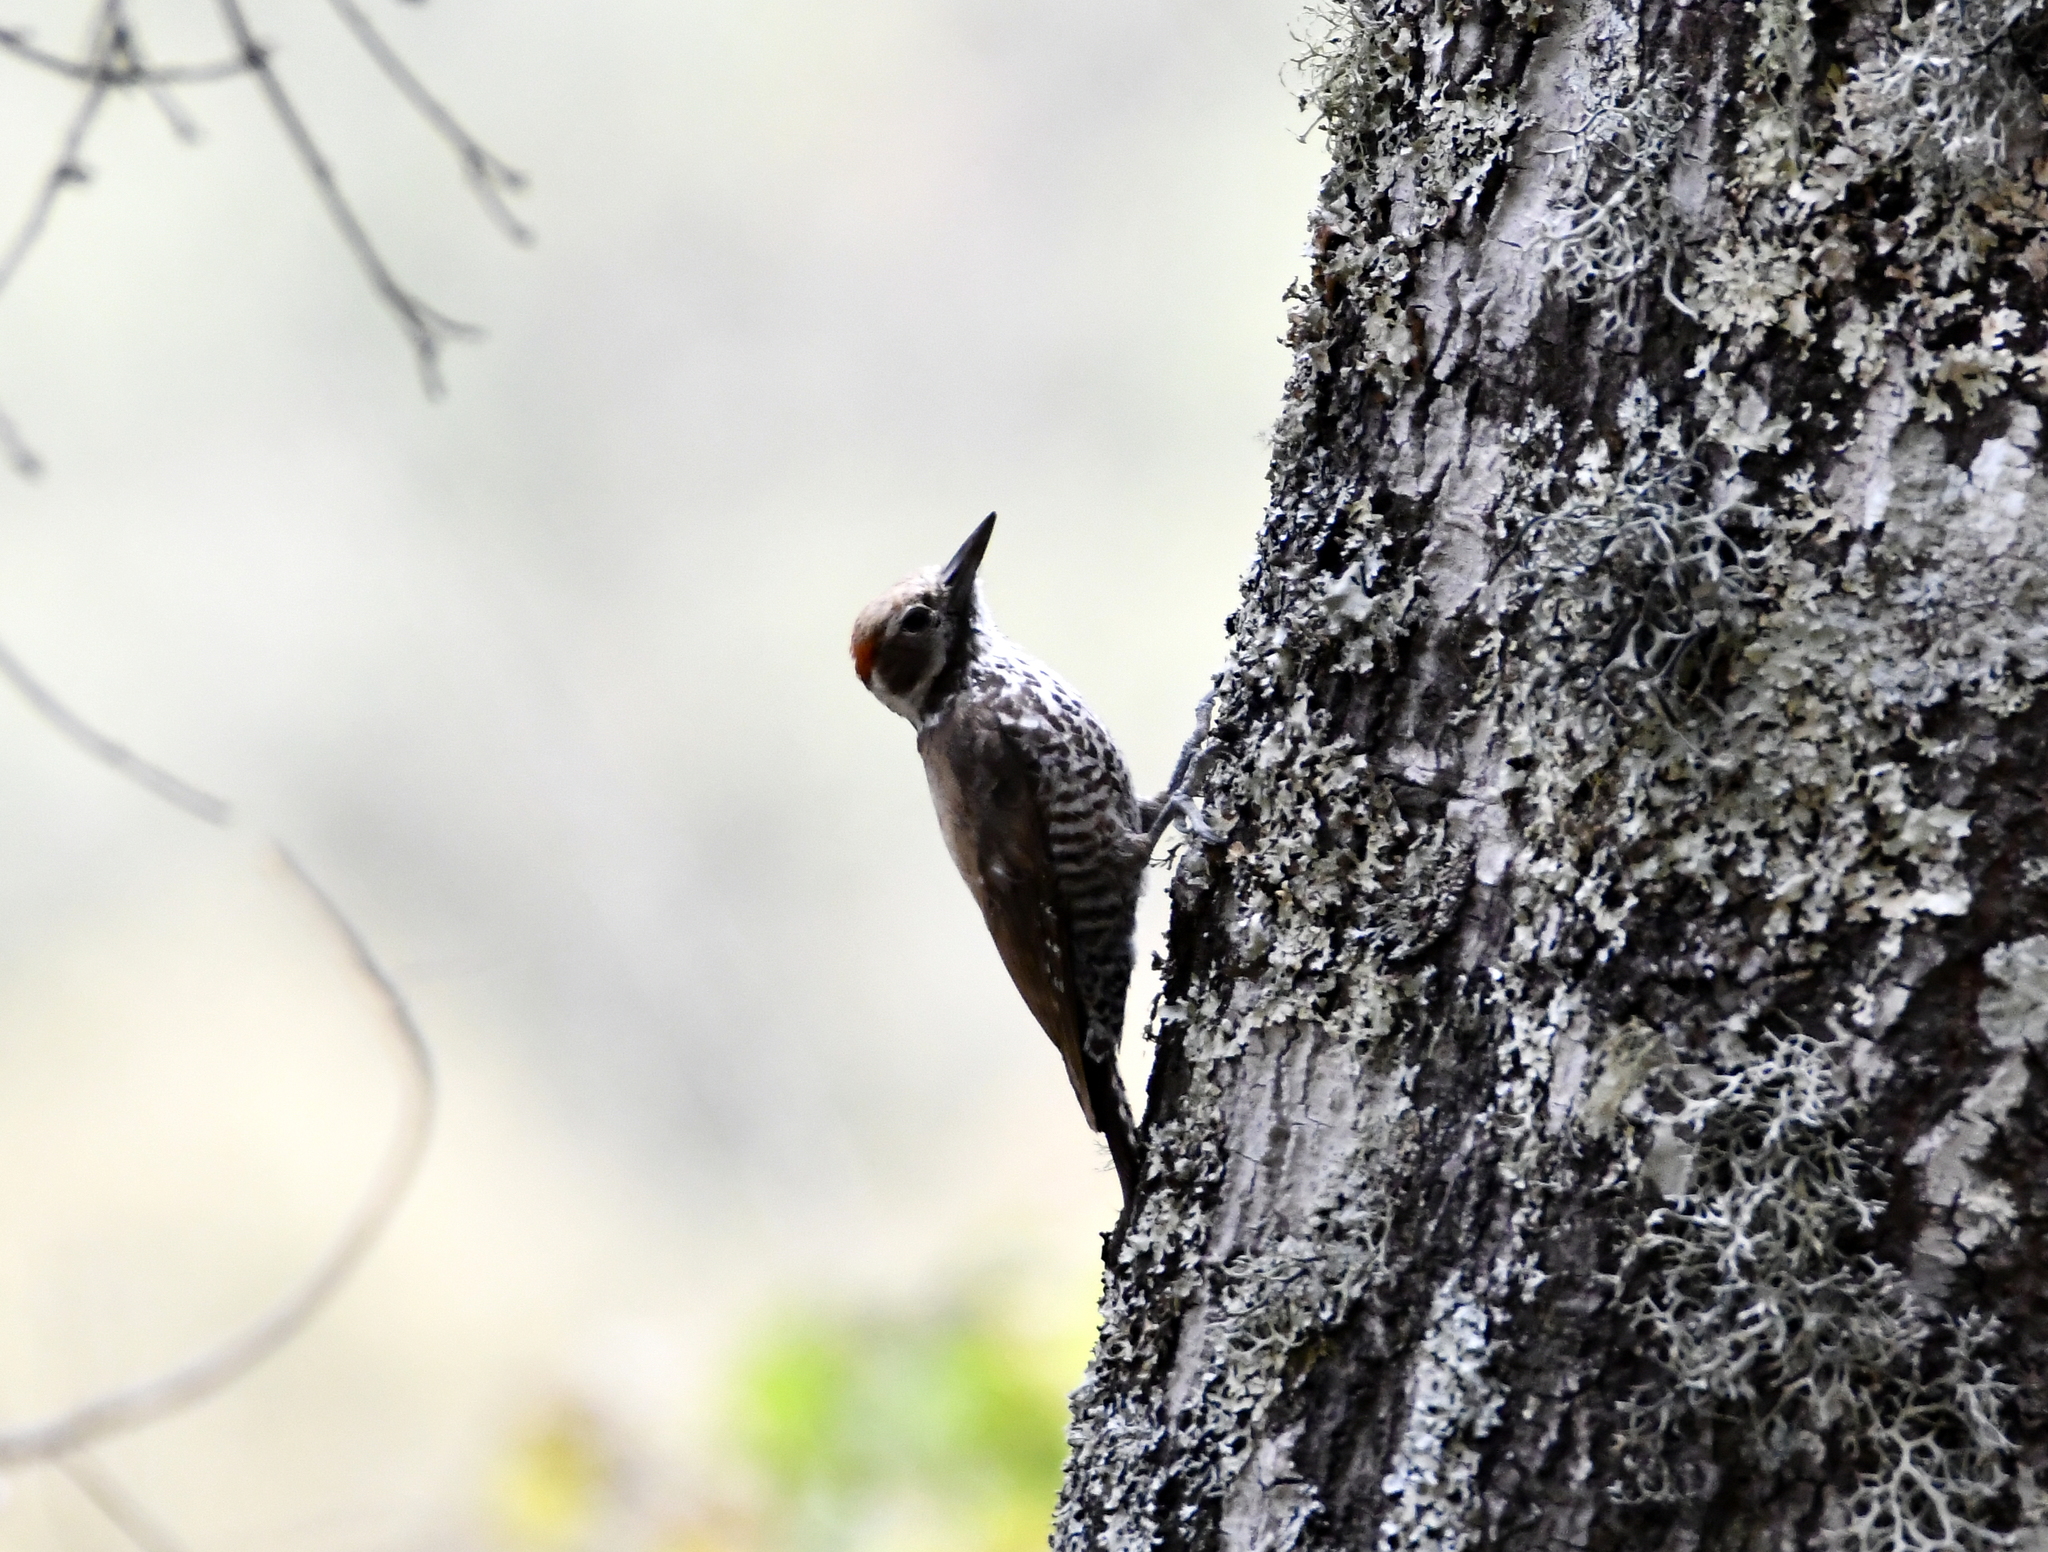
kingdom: Animalia
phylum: Chordata
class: Aves
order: Piciformes
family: Picidae
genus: Leuconotopicus
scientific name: Leuconotopicus arizonae
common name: Arizona woodpecker
